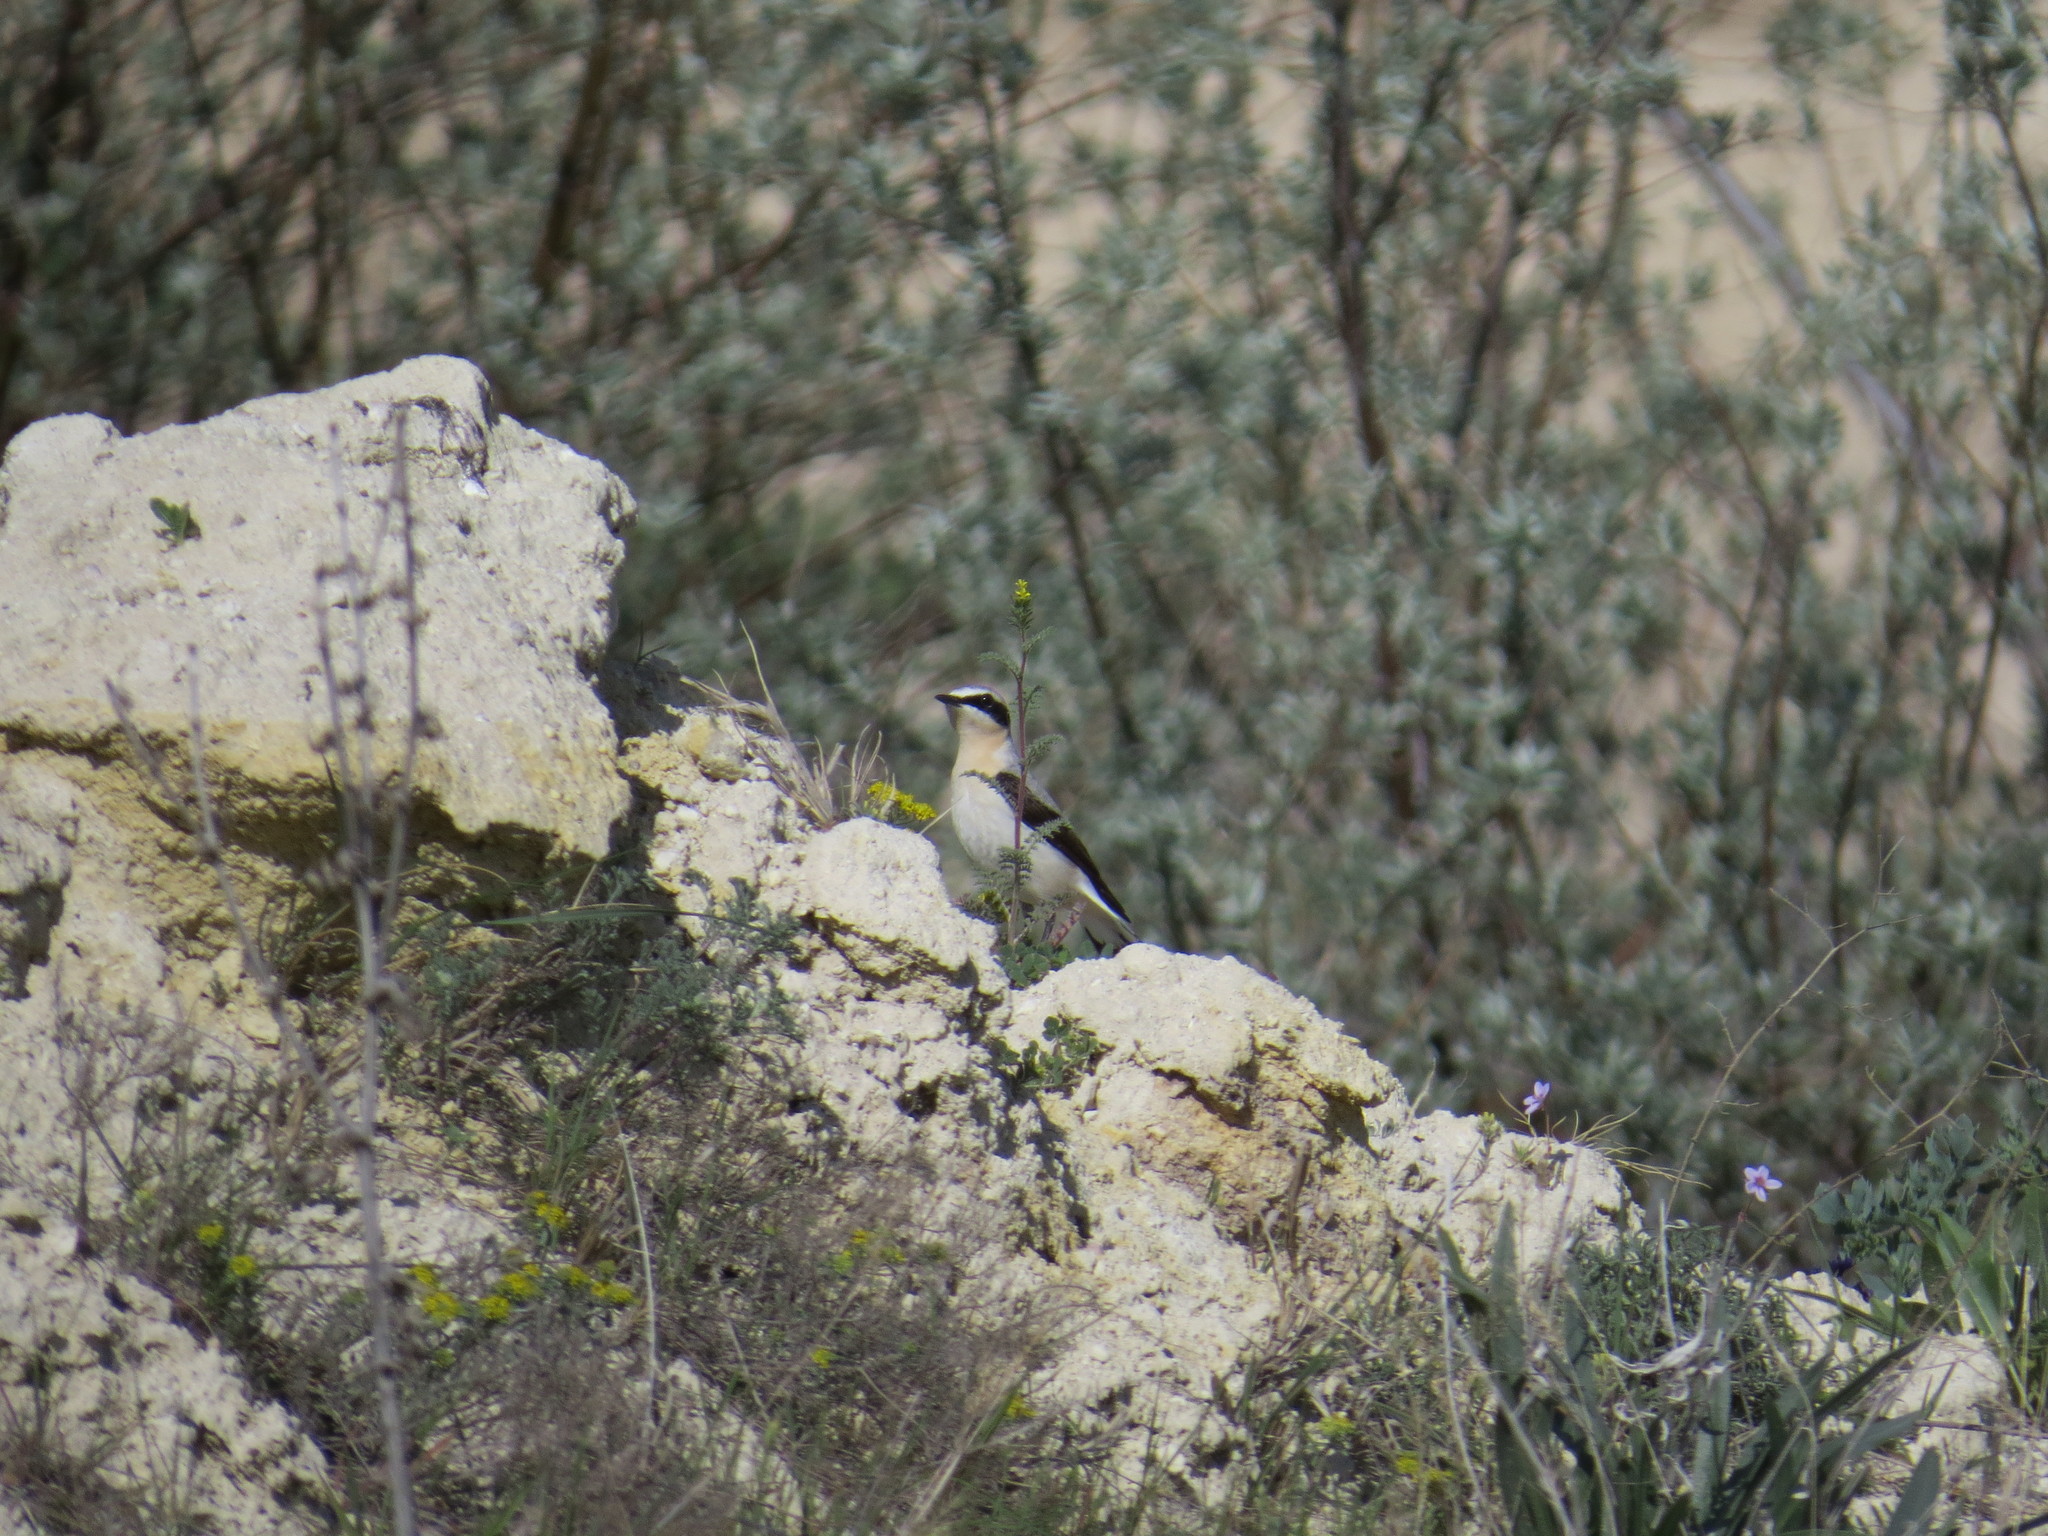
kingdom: Animalia
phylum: Chordata
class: Aves
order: Passeriformes
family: Muscicapidae
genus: Oenanthe
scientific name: Oenanthe oenanthe
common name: Northern wheatear
